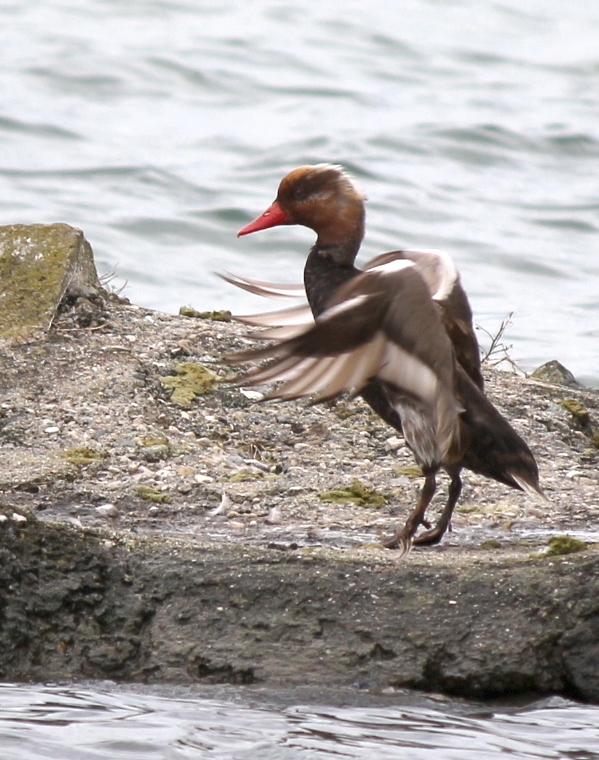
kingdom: Animalia
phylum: Chordata
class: Aves
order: Anseriformes
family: Anatidae
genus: Netta
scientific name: Netta rufina
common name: Red-crested pochard
